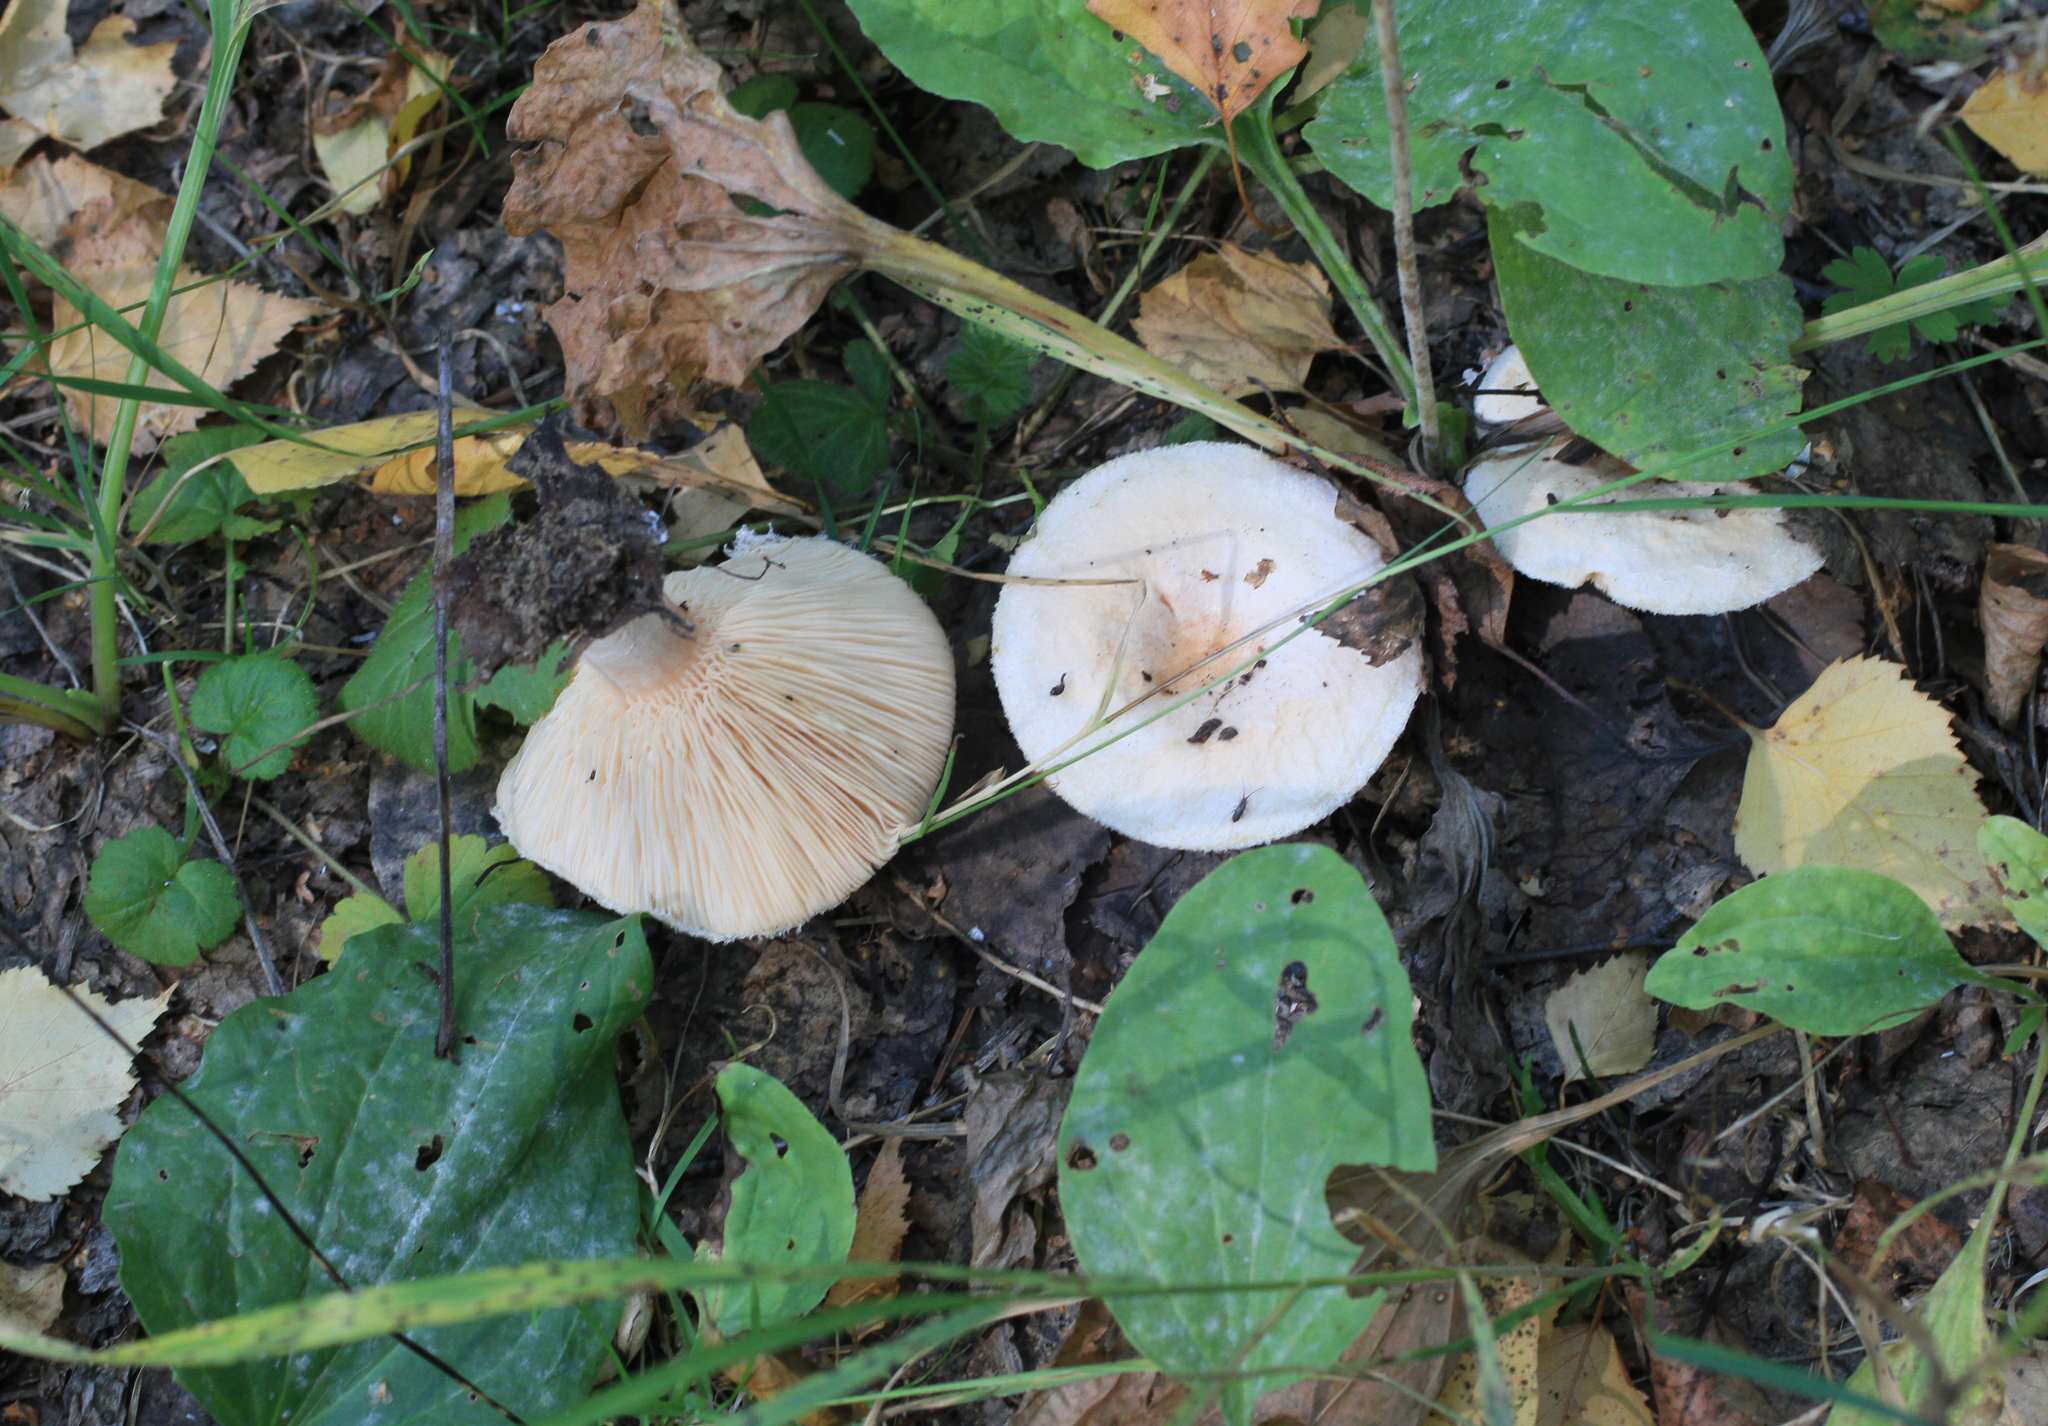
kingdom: Fungi
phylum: Basidiomycota
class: Agaricomycetes
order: Russulales
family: Russulaceae
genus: Lactarius
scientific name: Lactarius pubescens
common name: Bearded milkcap
